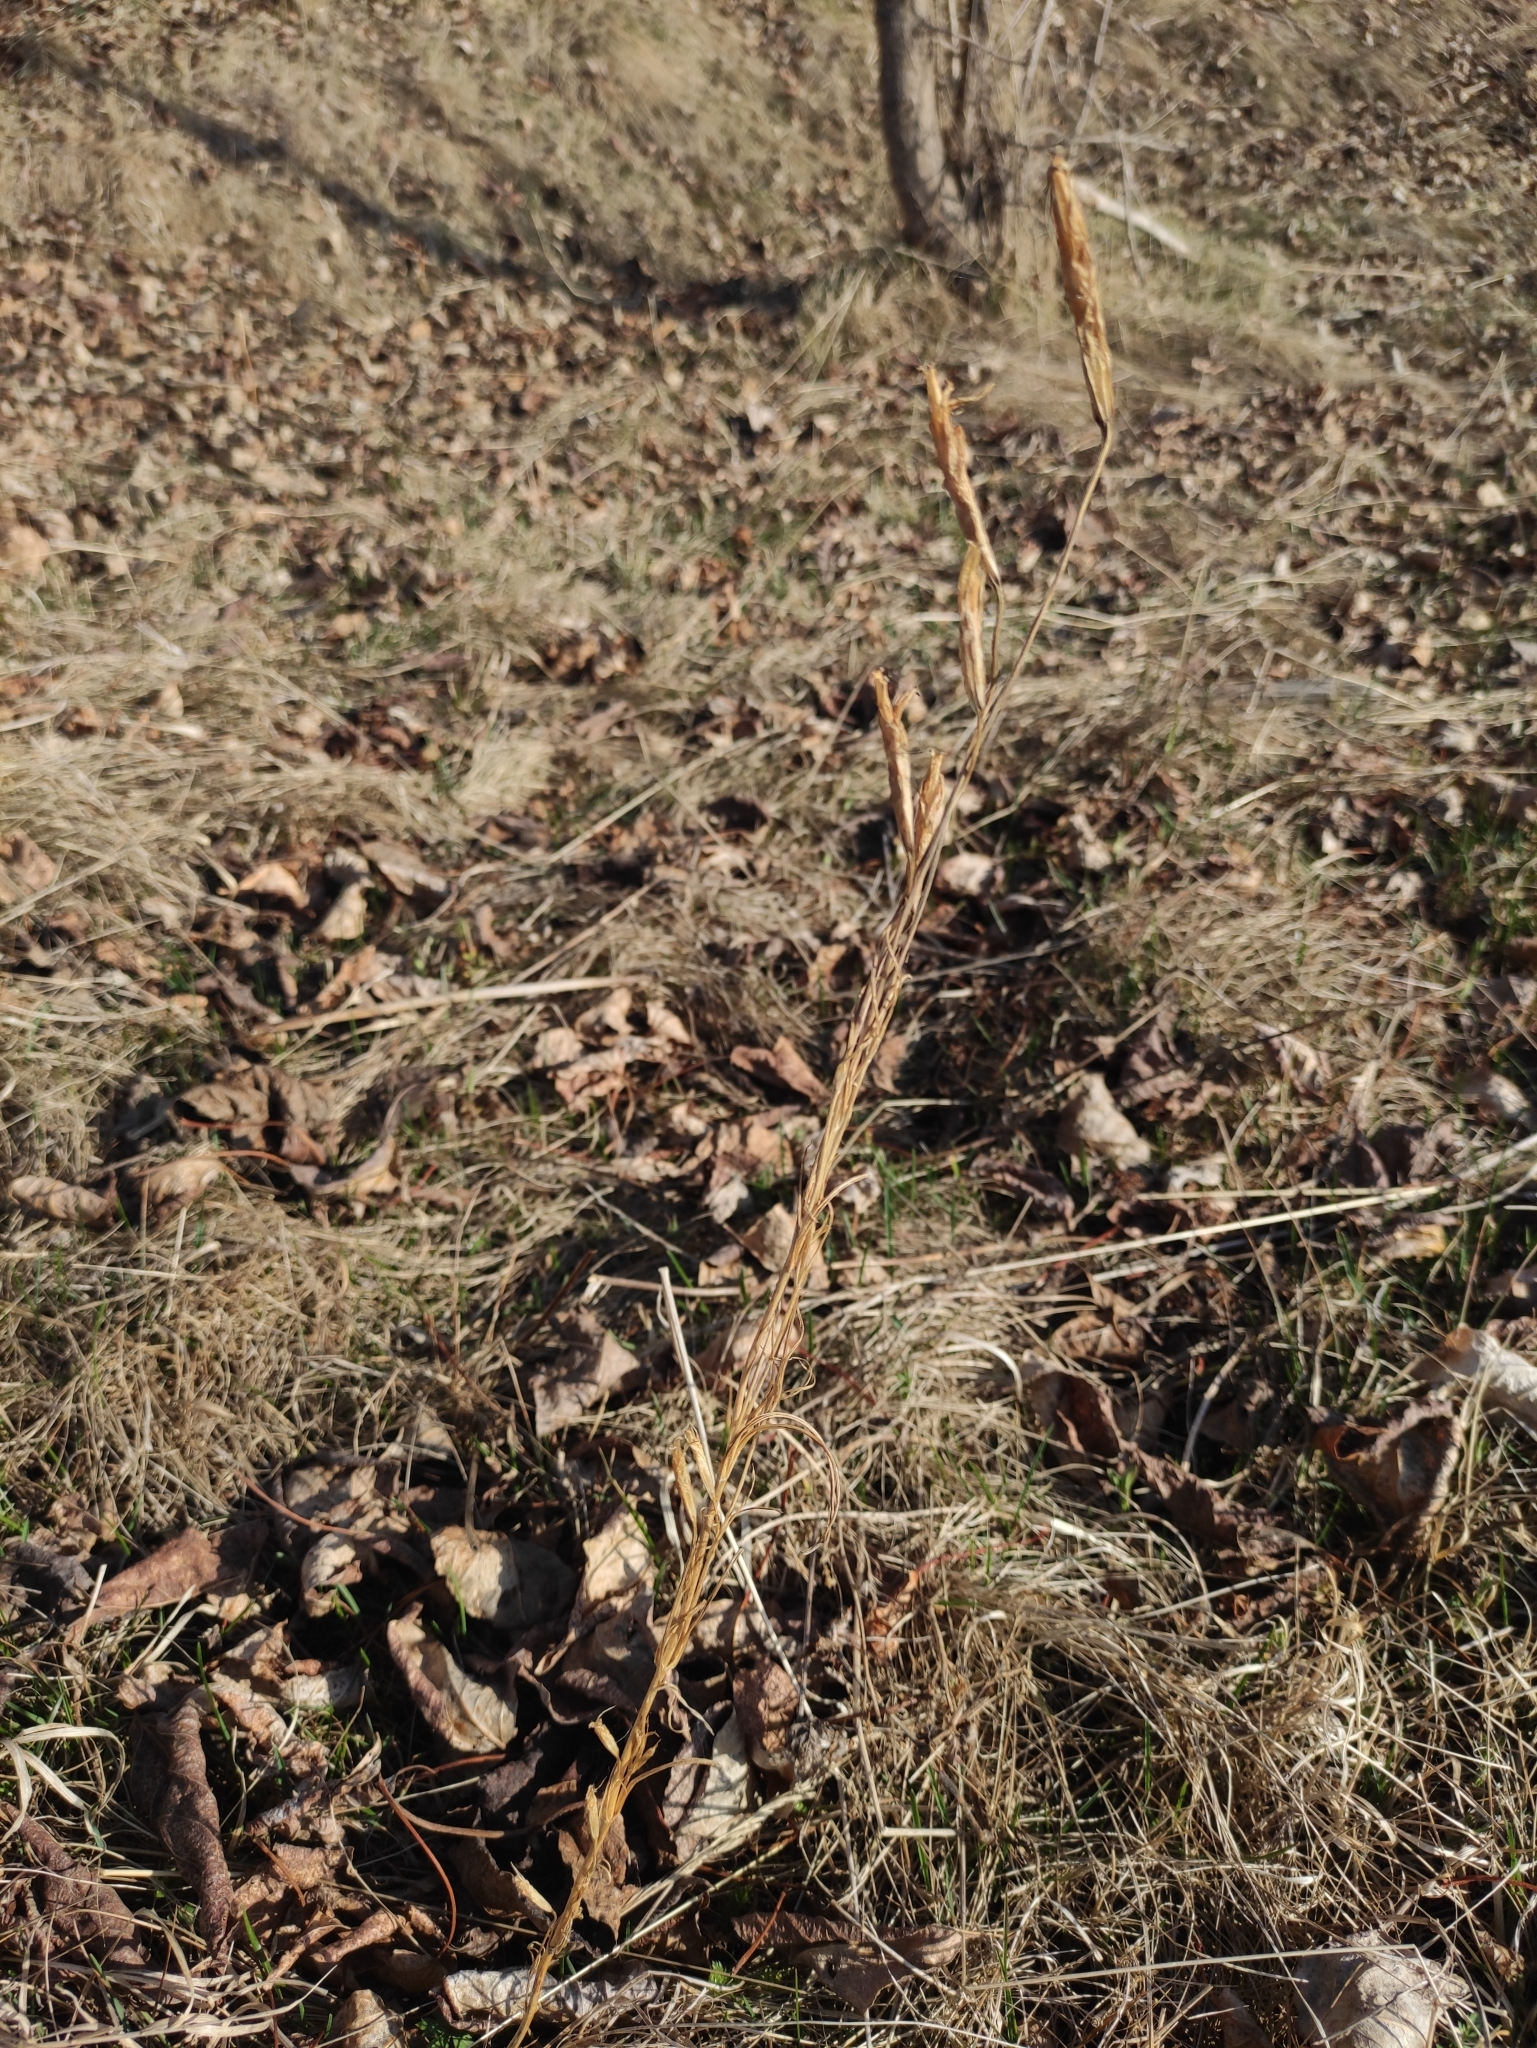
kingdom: Plantae
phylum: Tracheophyta
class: Magnoliopsida
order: Gentianales
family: Gentianaceae
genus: Gentianopsis
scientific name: Gentianopsis barbata
